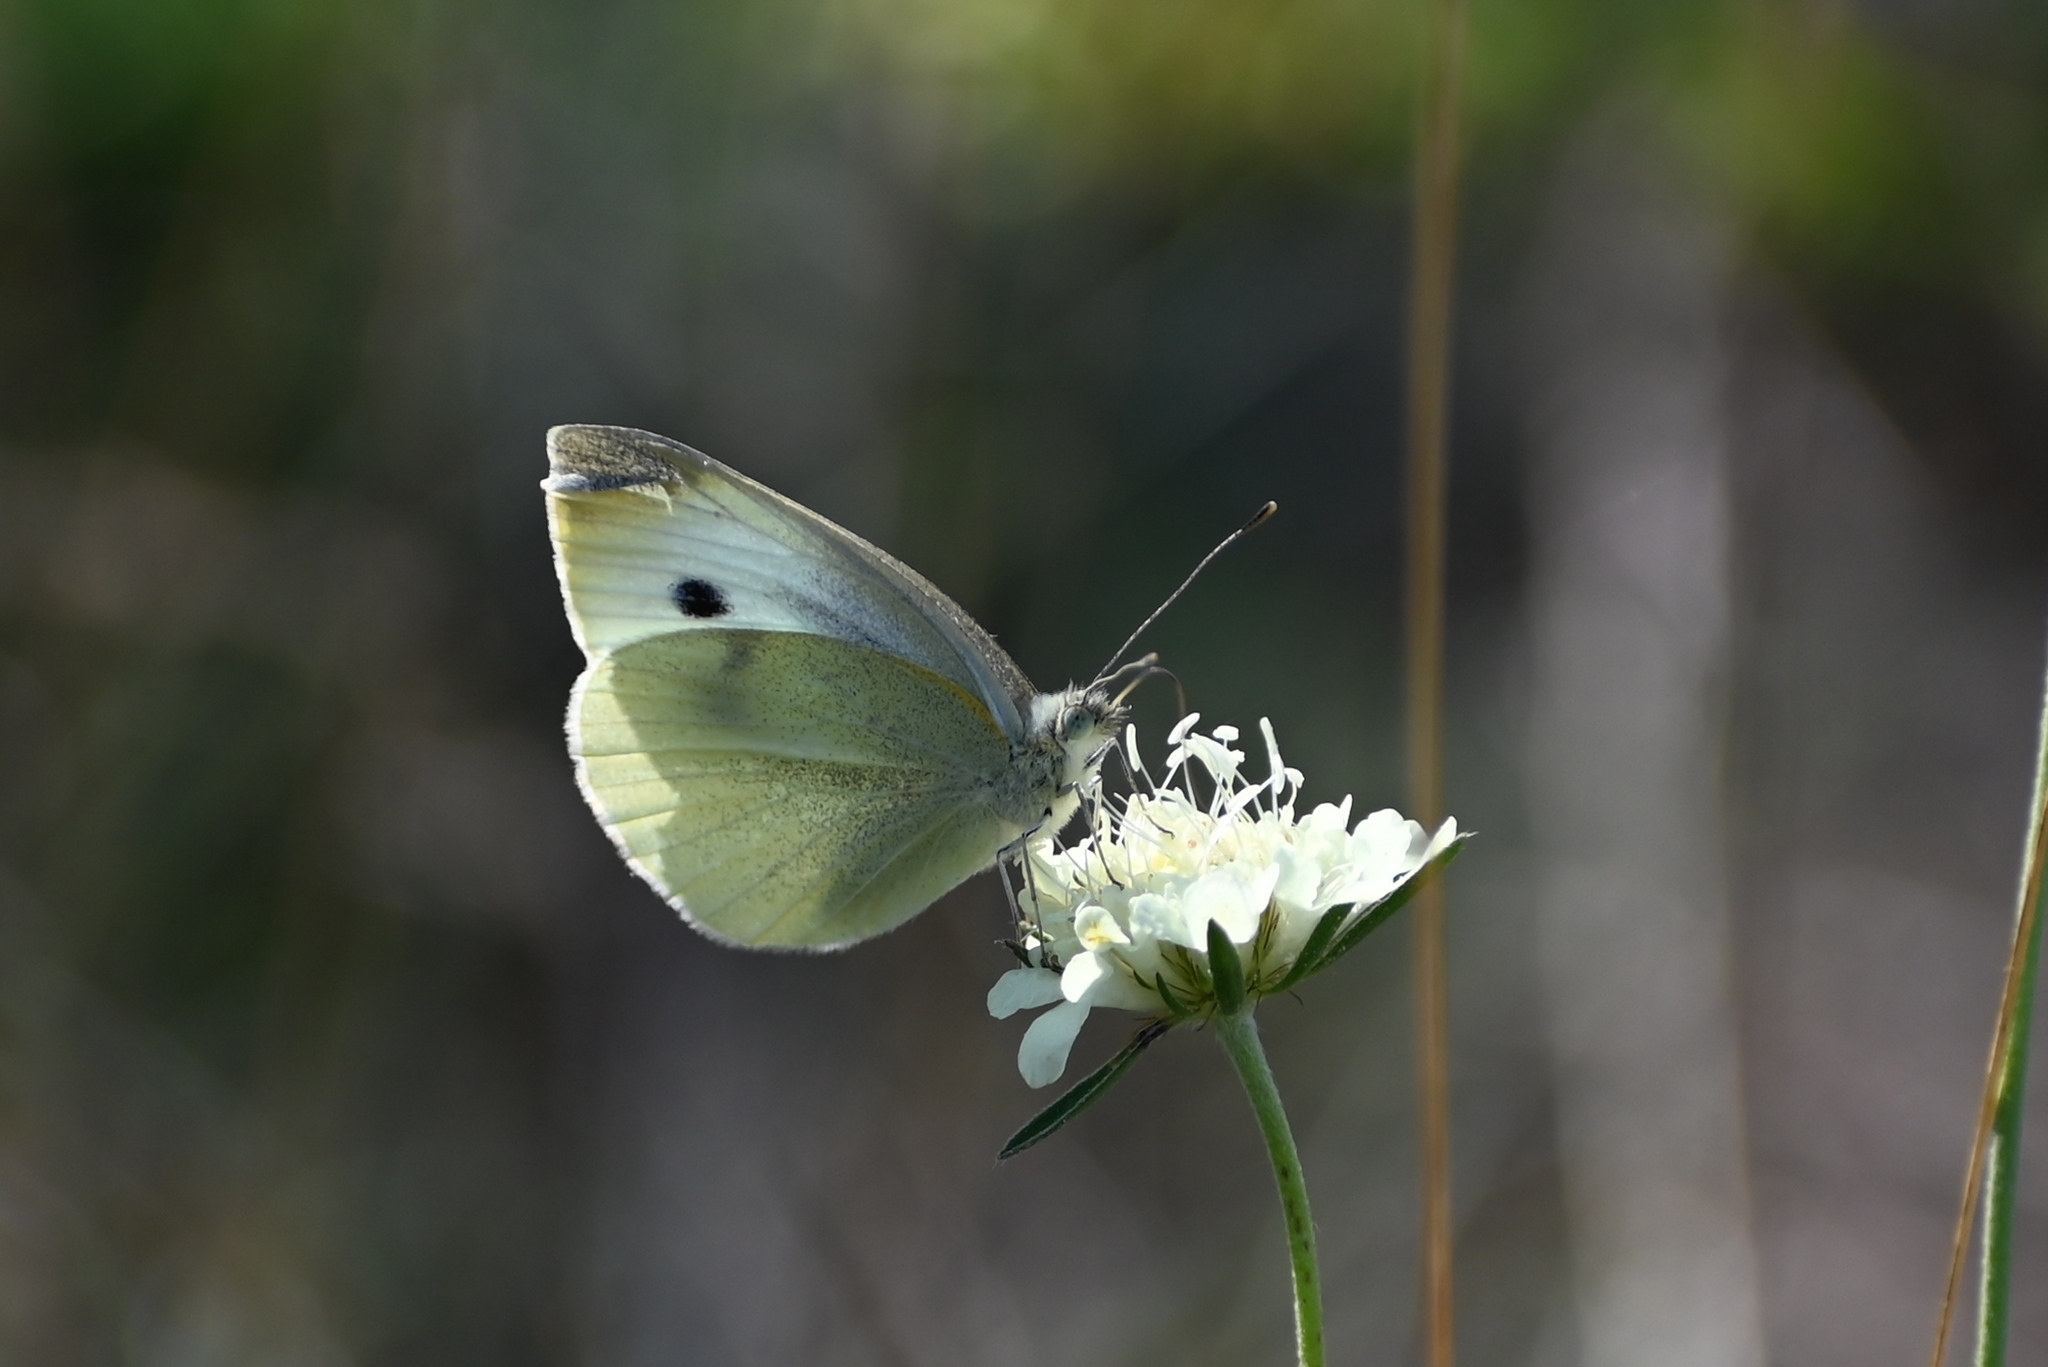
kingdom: Animalia
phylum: Arthropoda
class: Insecta
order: Lepidoptera
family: Pieridae
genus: Pieris
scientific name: Pieris rapae
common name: Small white
